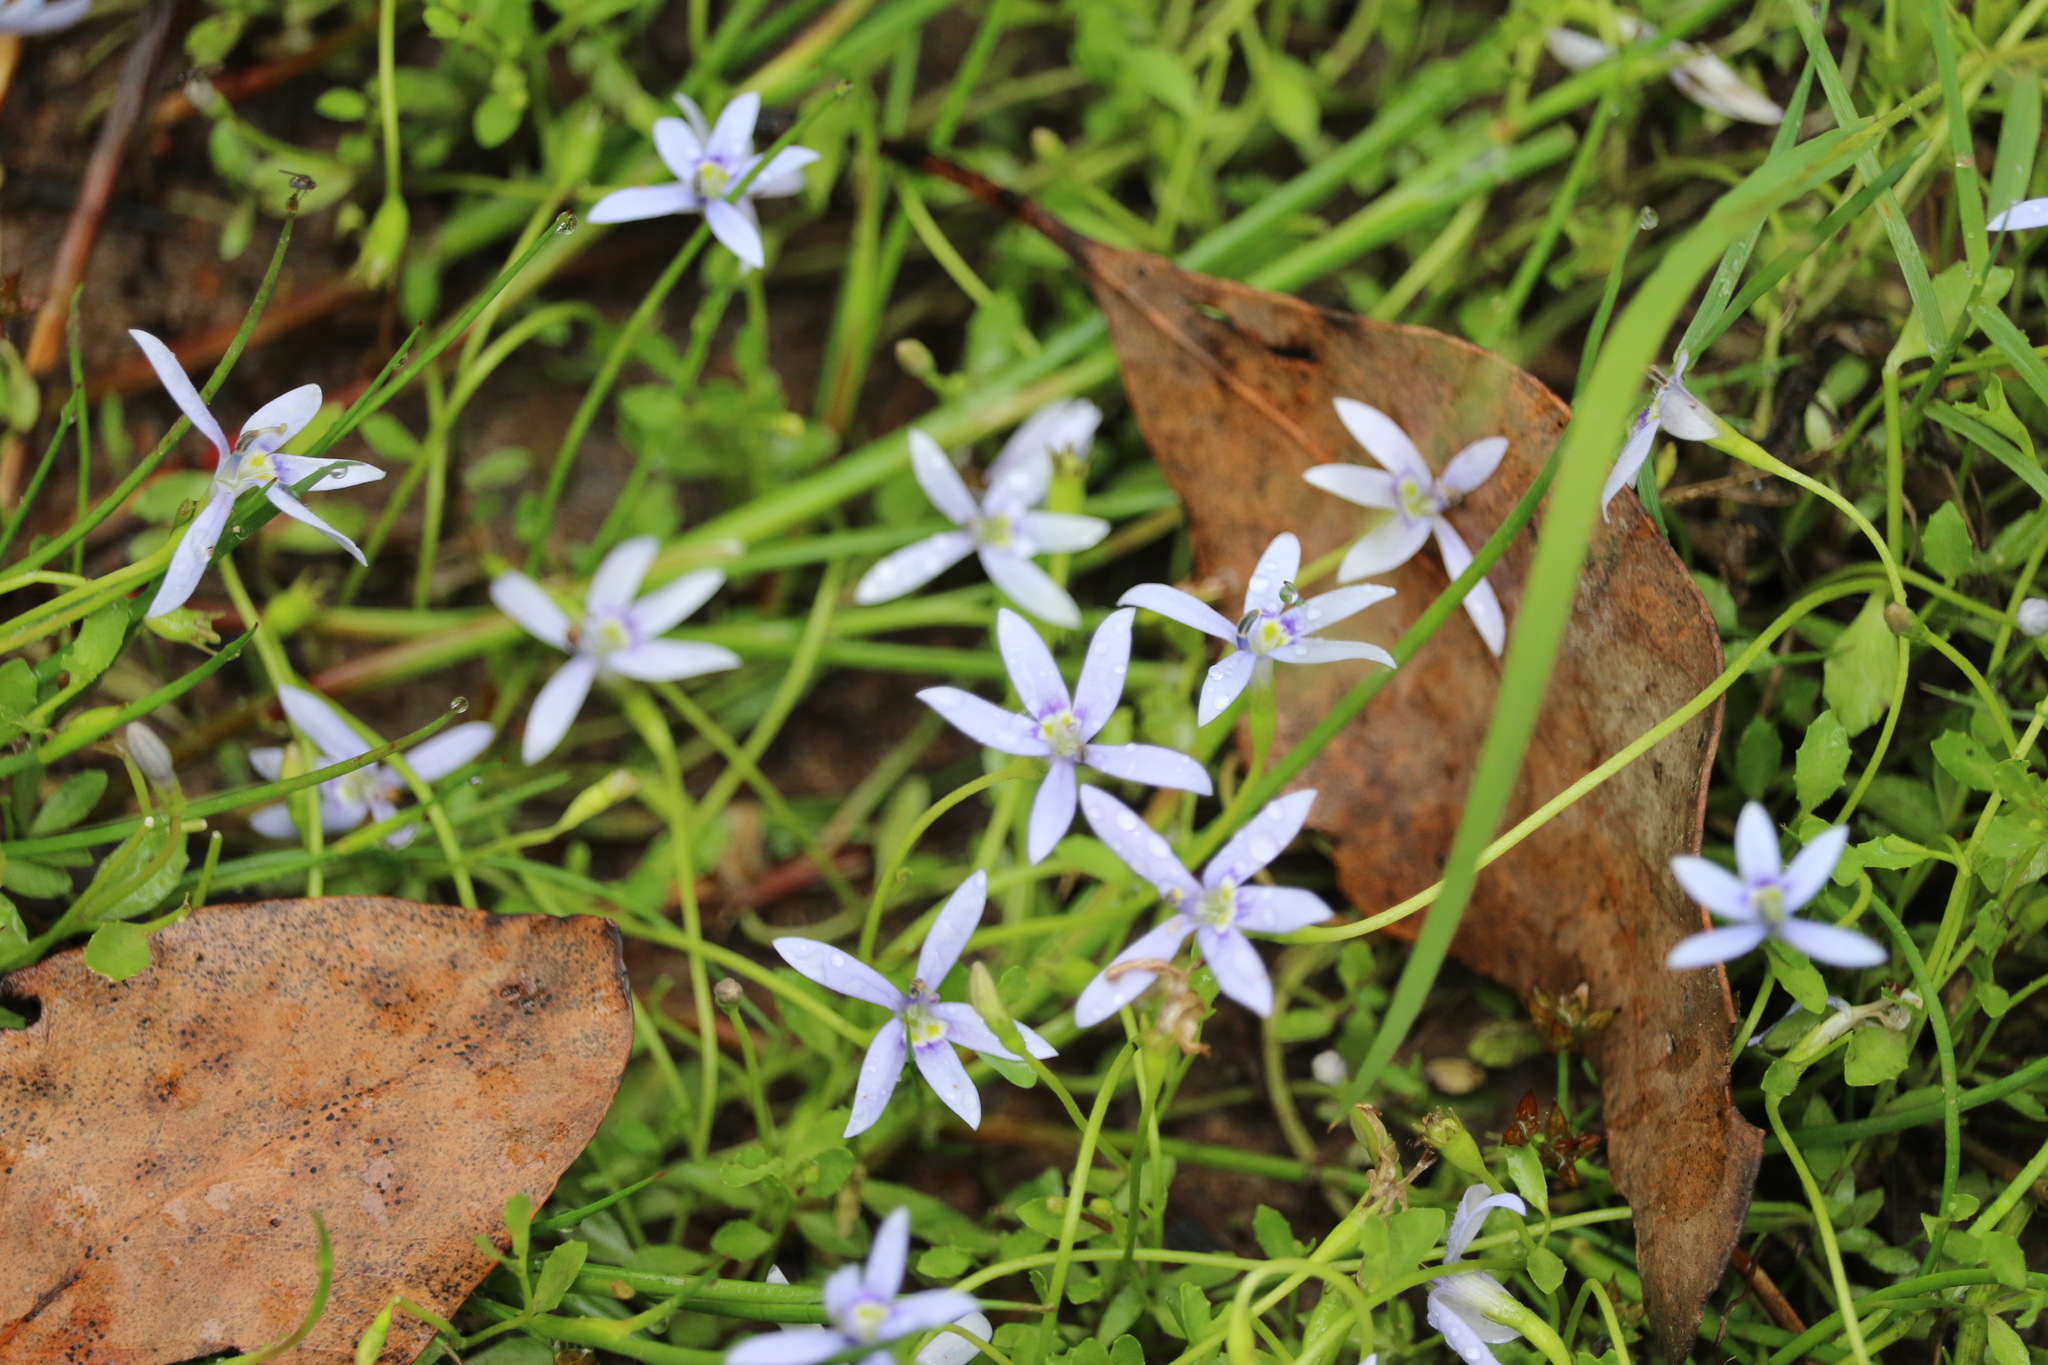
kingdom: Plantae
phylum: Tracheophyta
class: Magnoliopsida
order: Asterales
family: Campanulaceae
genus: Isotoma
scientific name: Isotoma fluviatilis
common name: Isotoma
